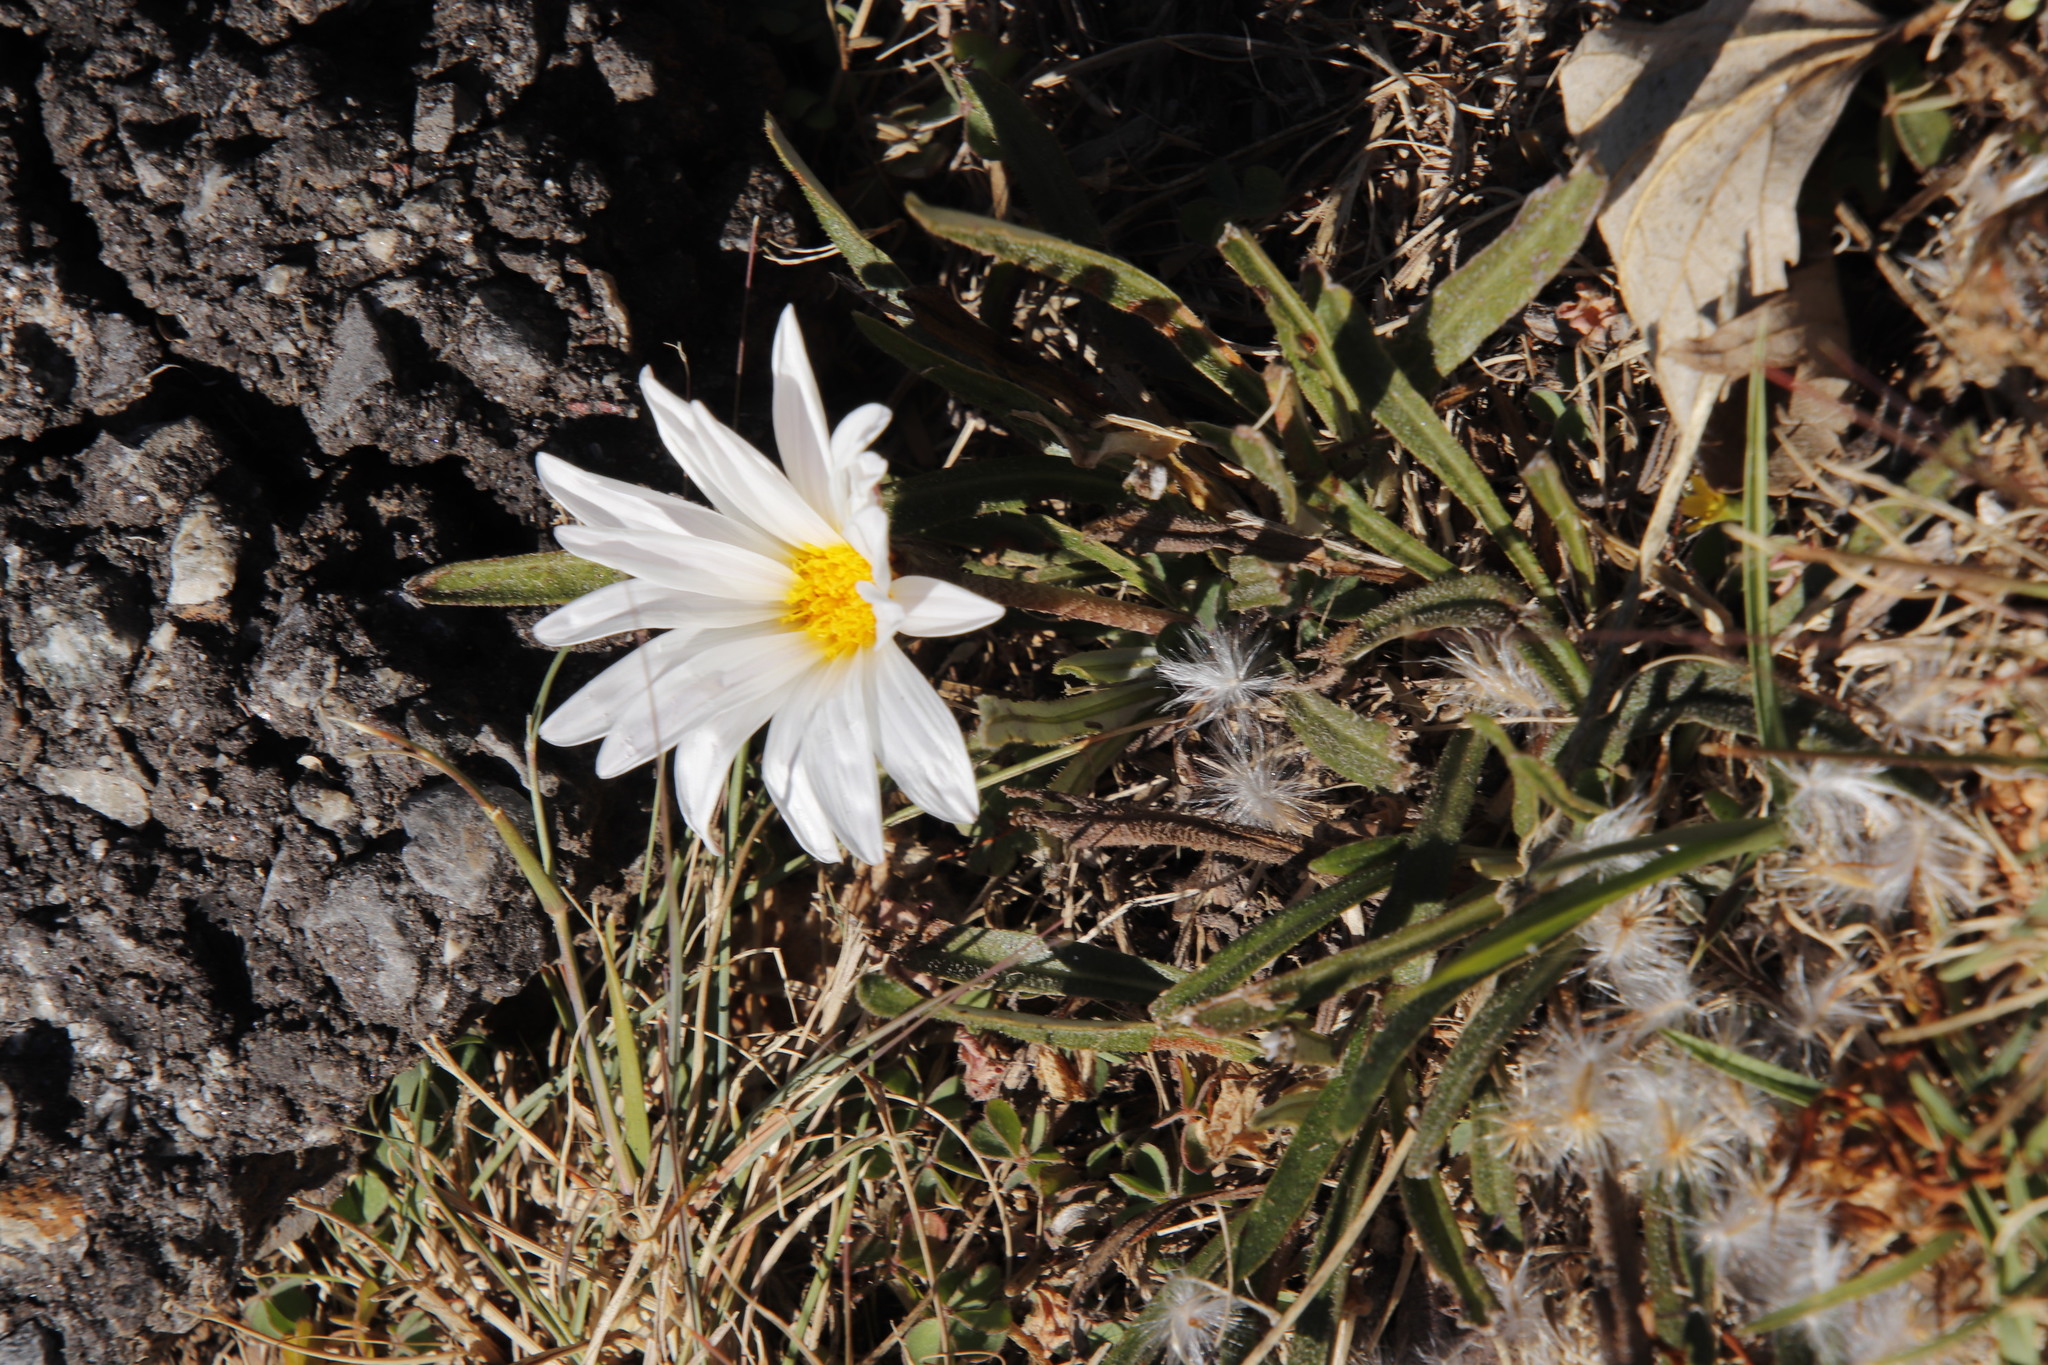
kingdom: Plantae
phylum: Tracheophyta
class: Magnoliopsida
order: Asterales
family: Asteraceae
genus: Gazania
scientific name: Gazania krebsiana
